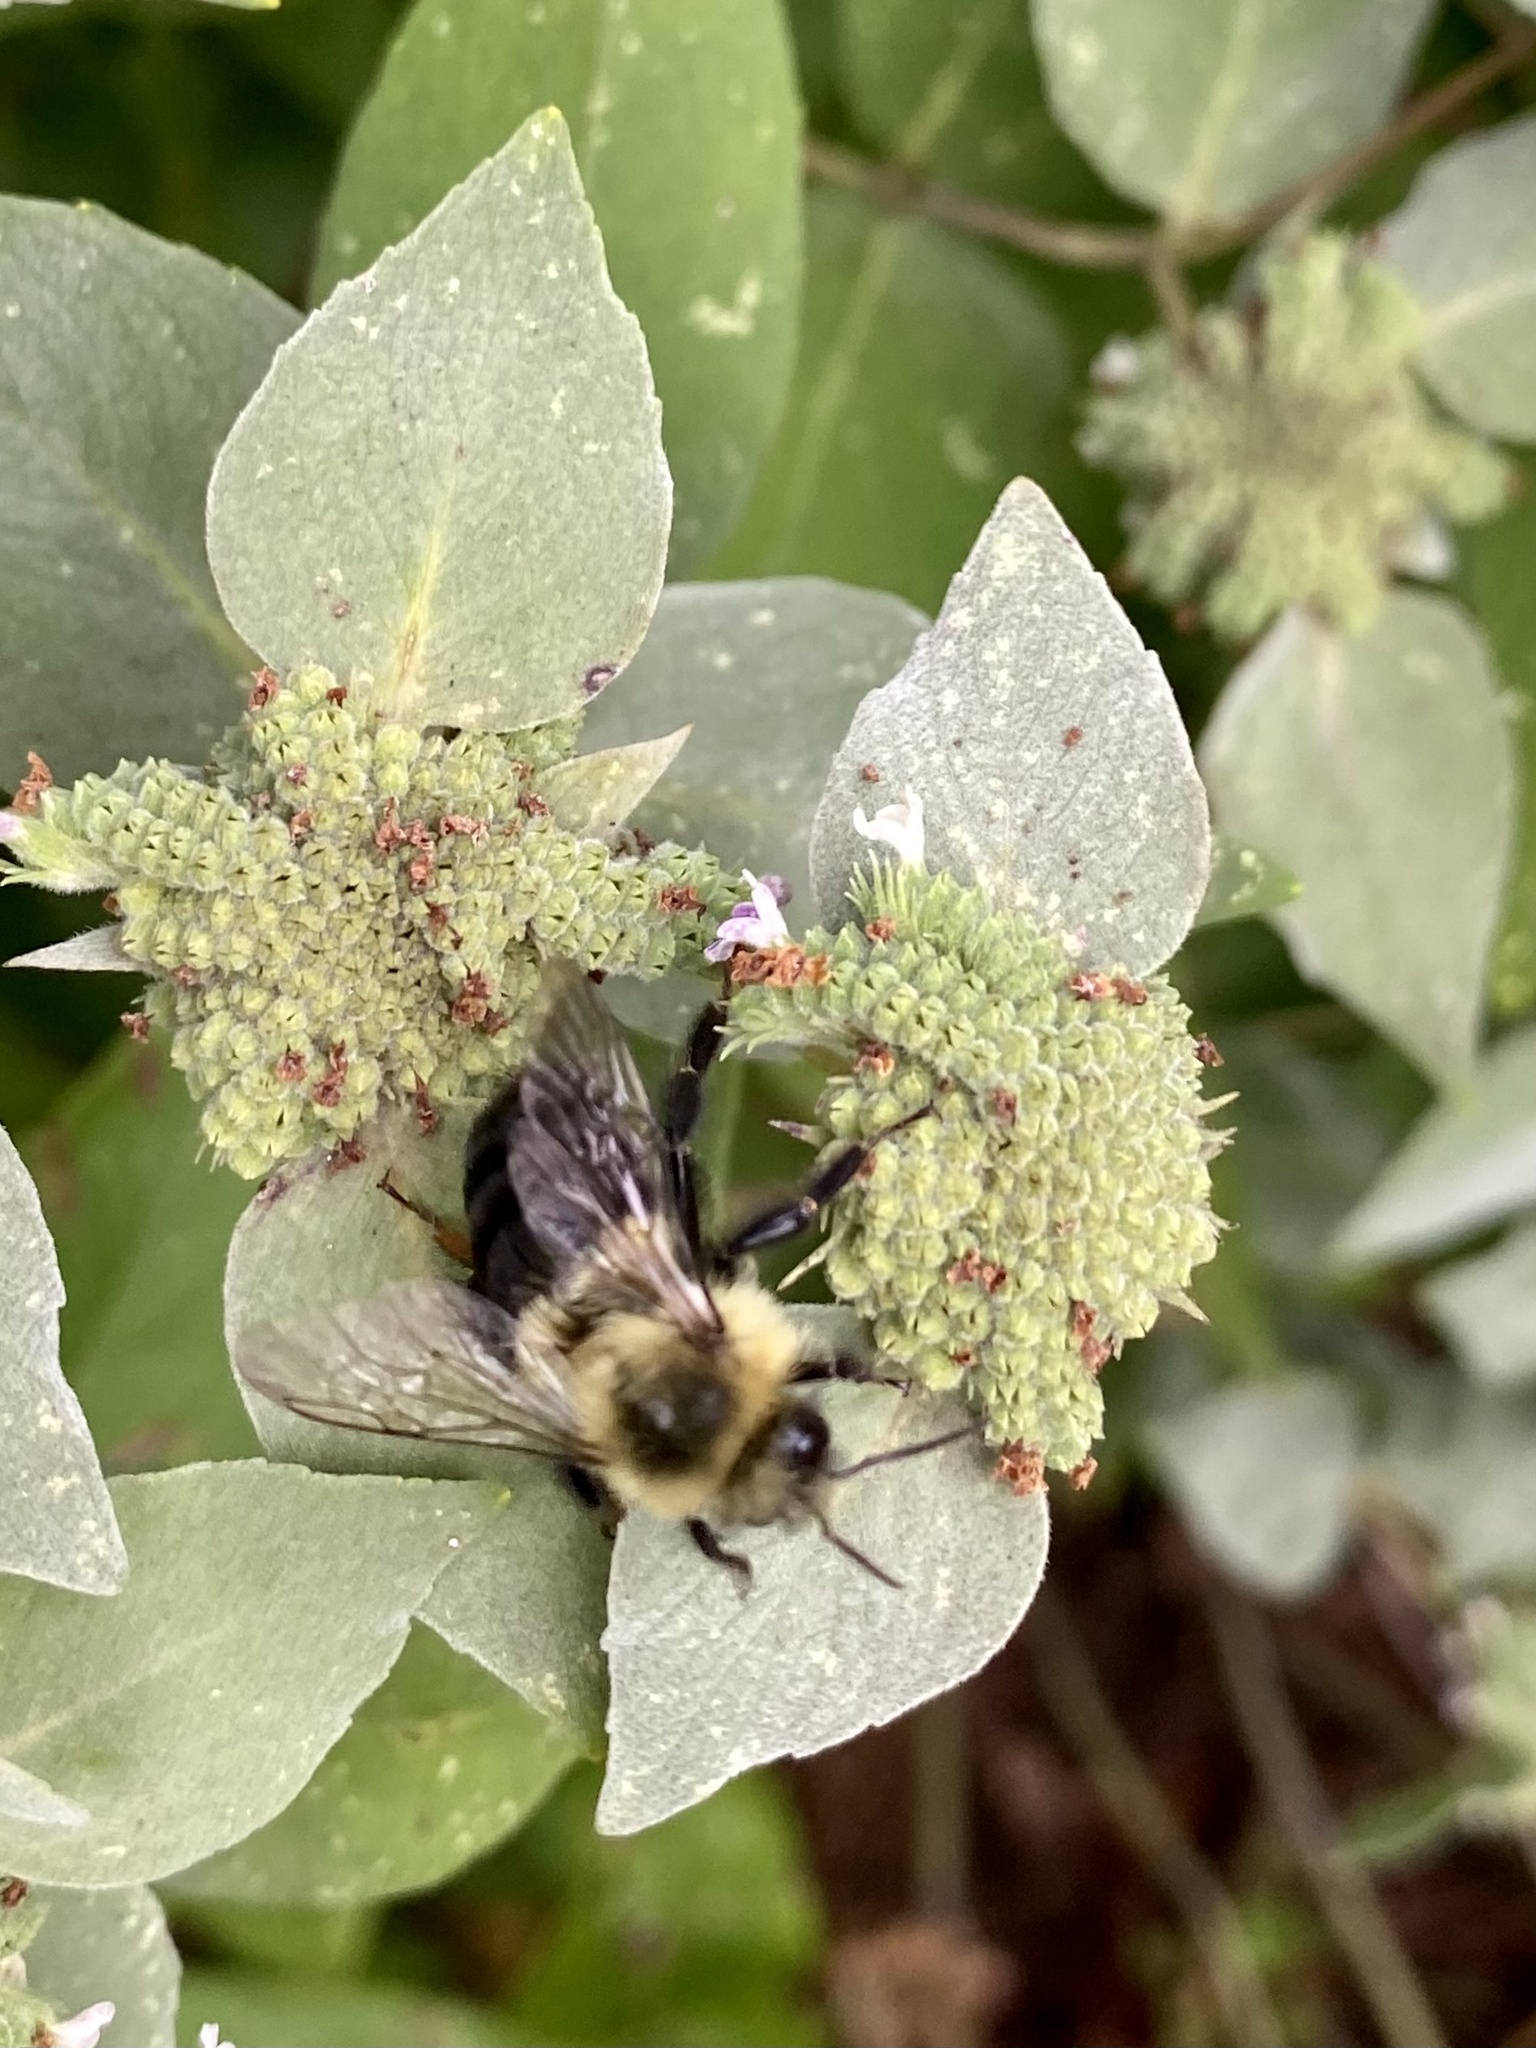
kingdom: Animalia
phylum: Arthropoda
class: Insecta
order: Hymenoptera
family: Apidae
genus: Bombus
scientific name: Bombus impatiens
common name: Common eastern bumble bee
